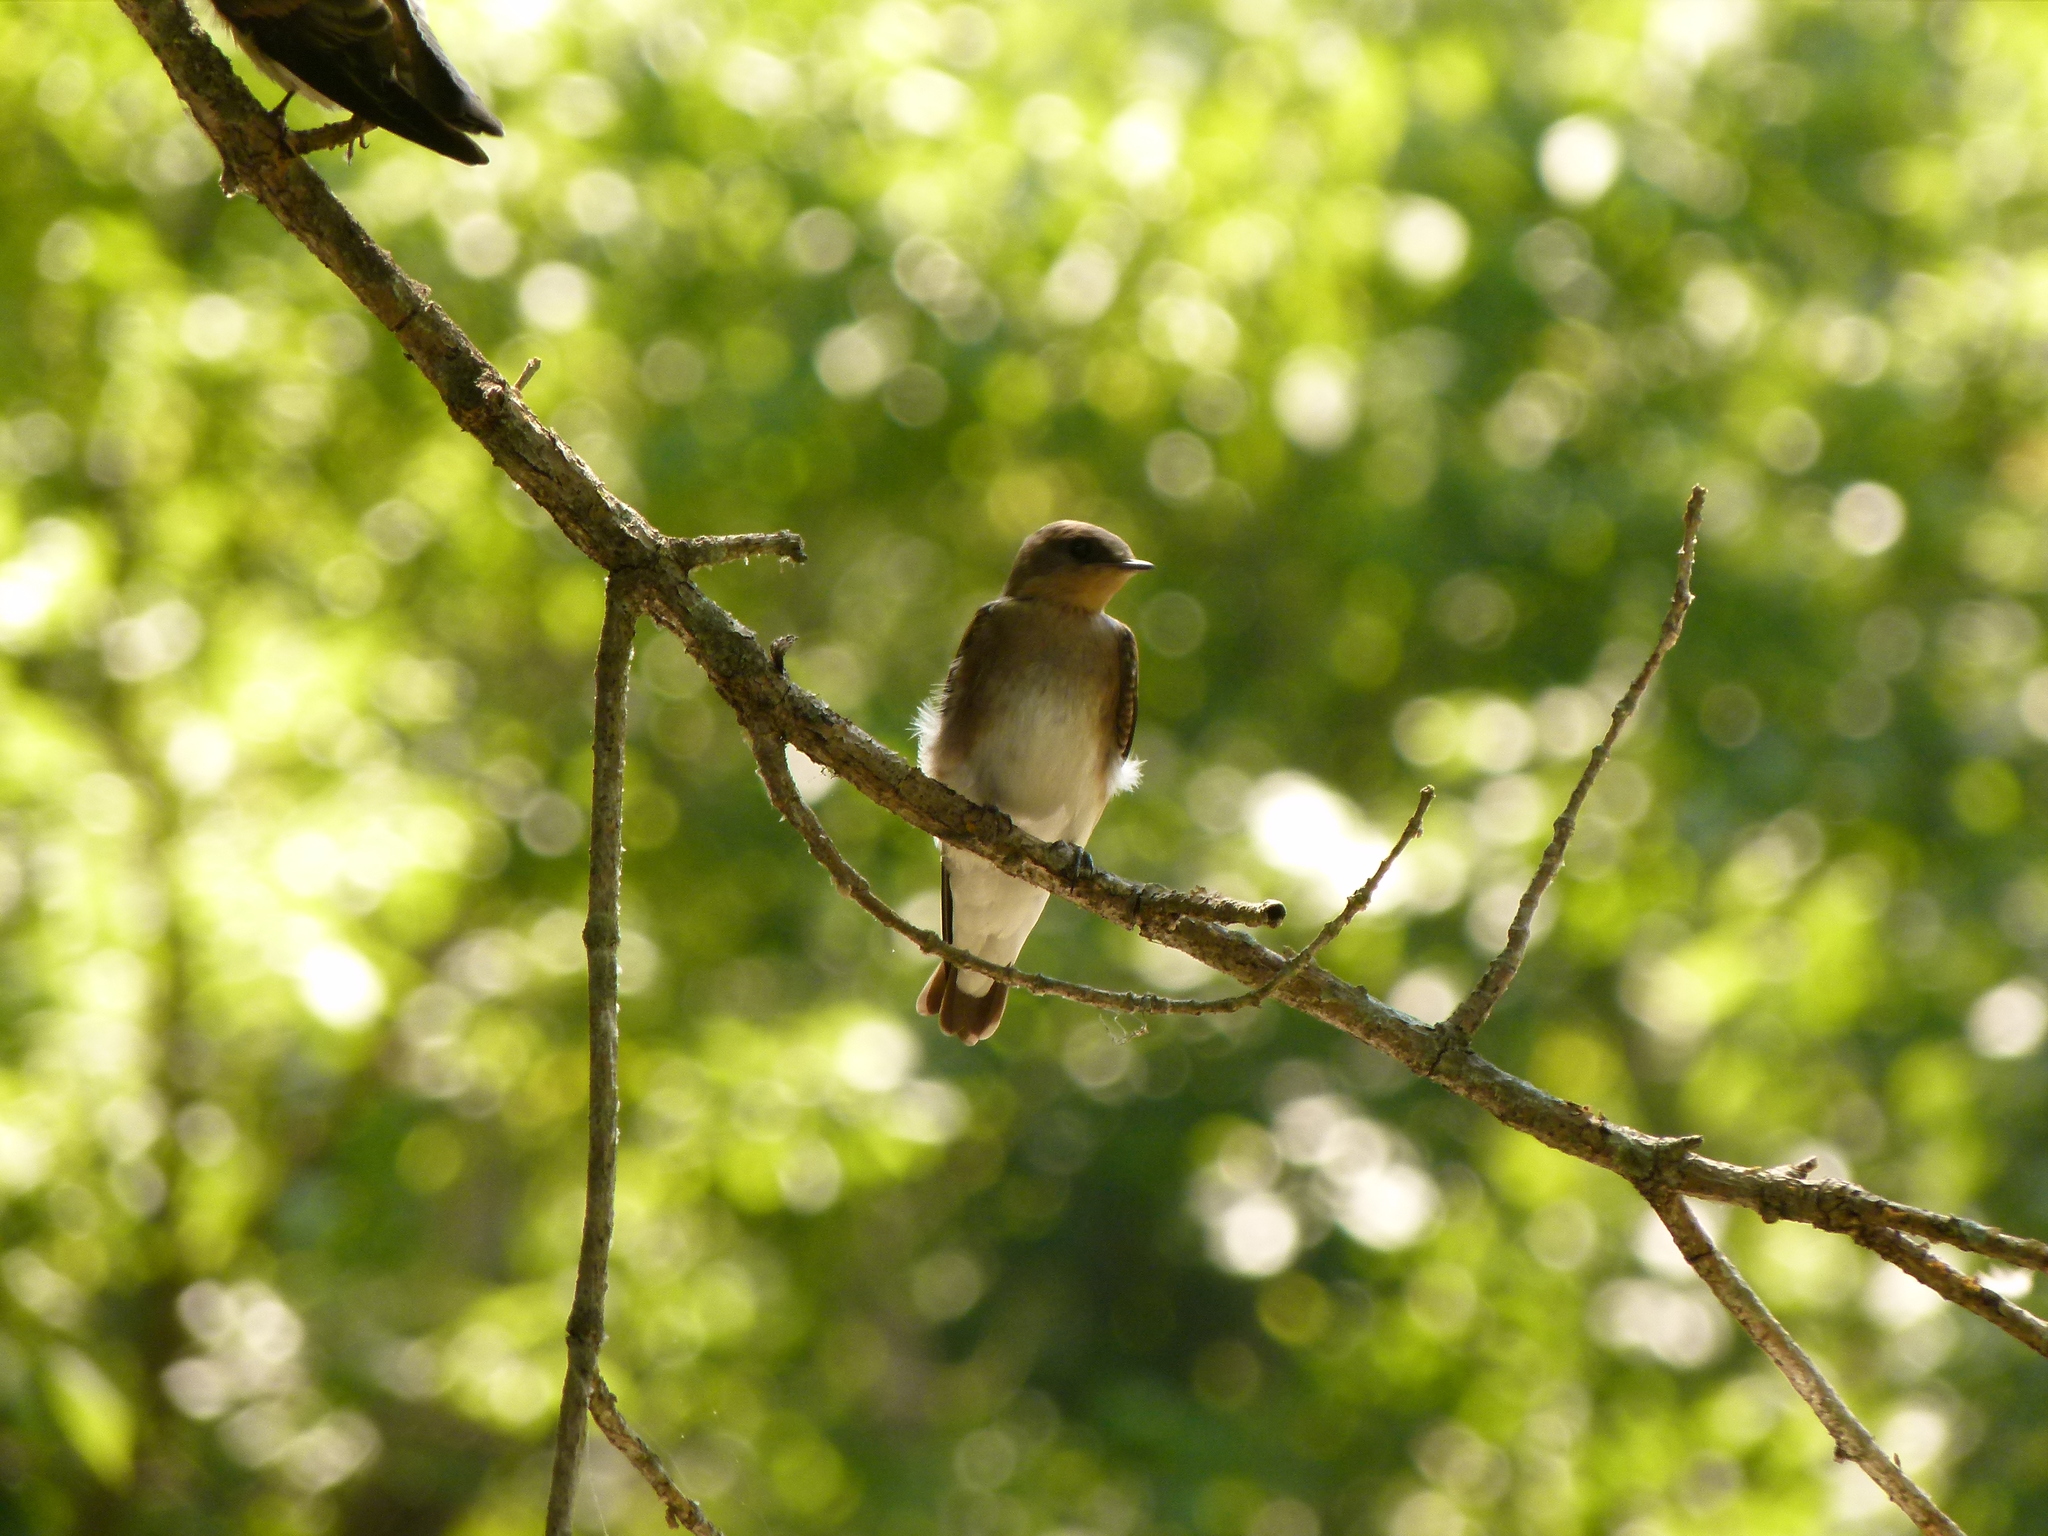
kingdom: Animalia
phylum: Chordata
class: Aves
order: Passeriformes
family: Hirundinidae
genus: Stelgidopteryx
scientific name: Stelgidopteryx serripennis
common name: Northern rough-winged swallow
